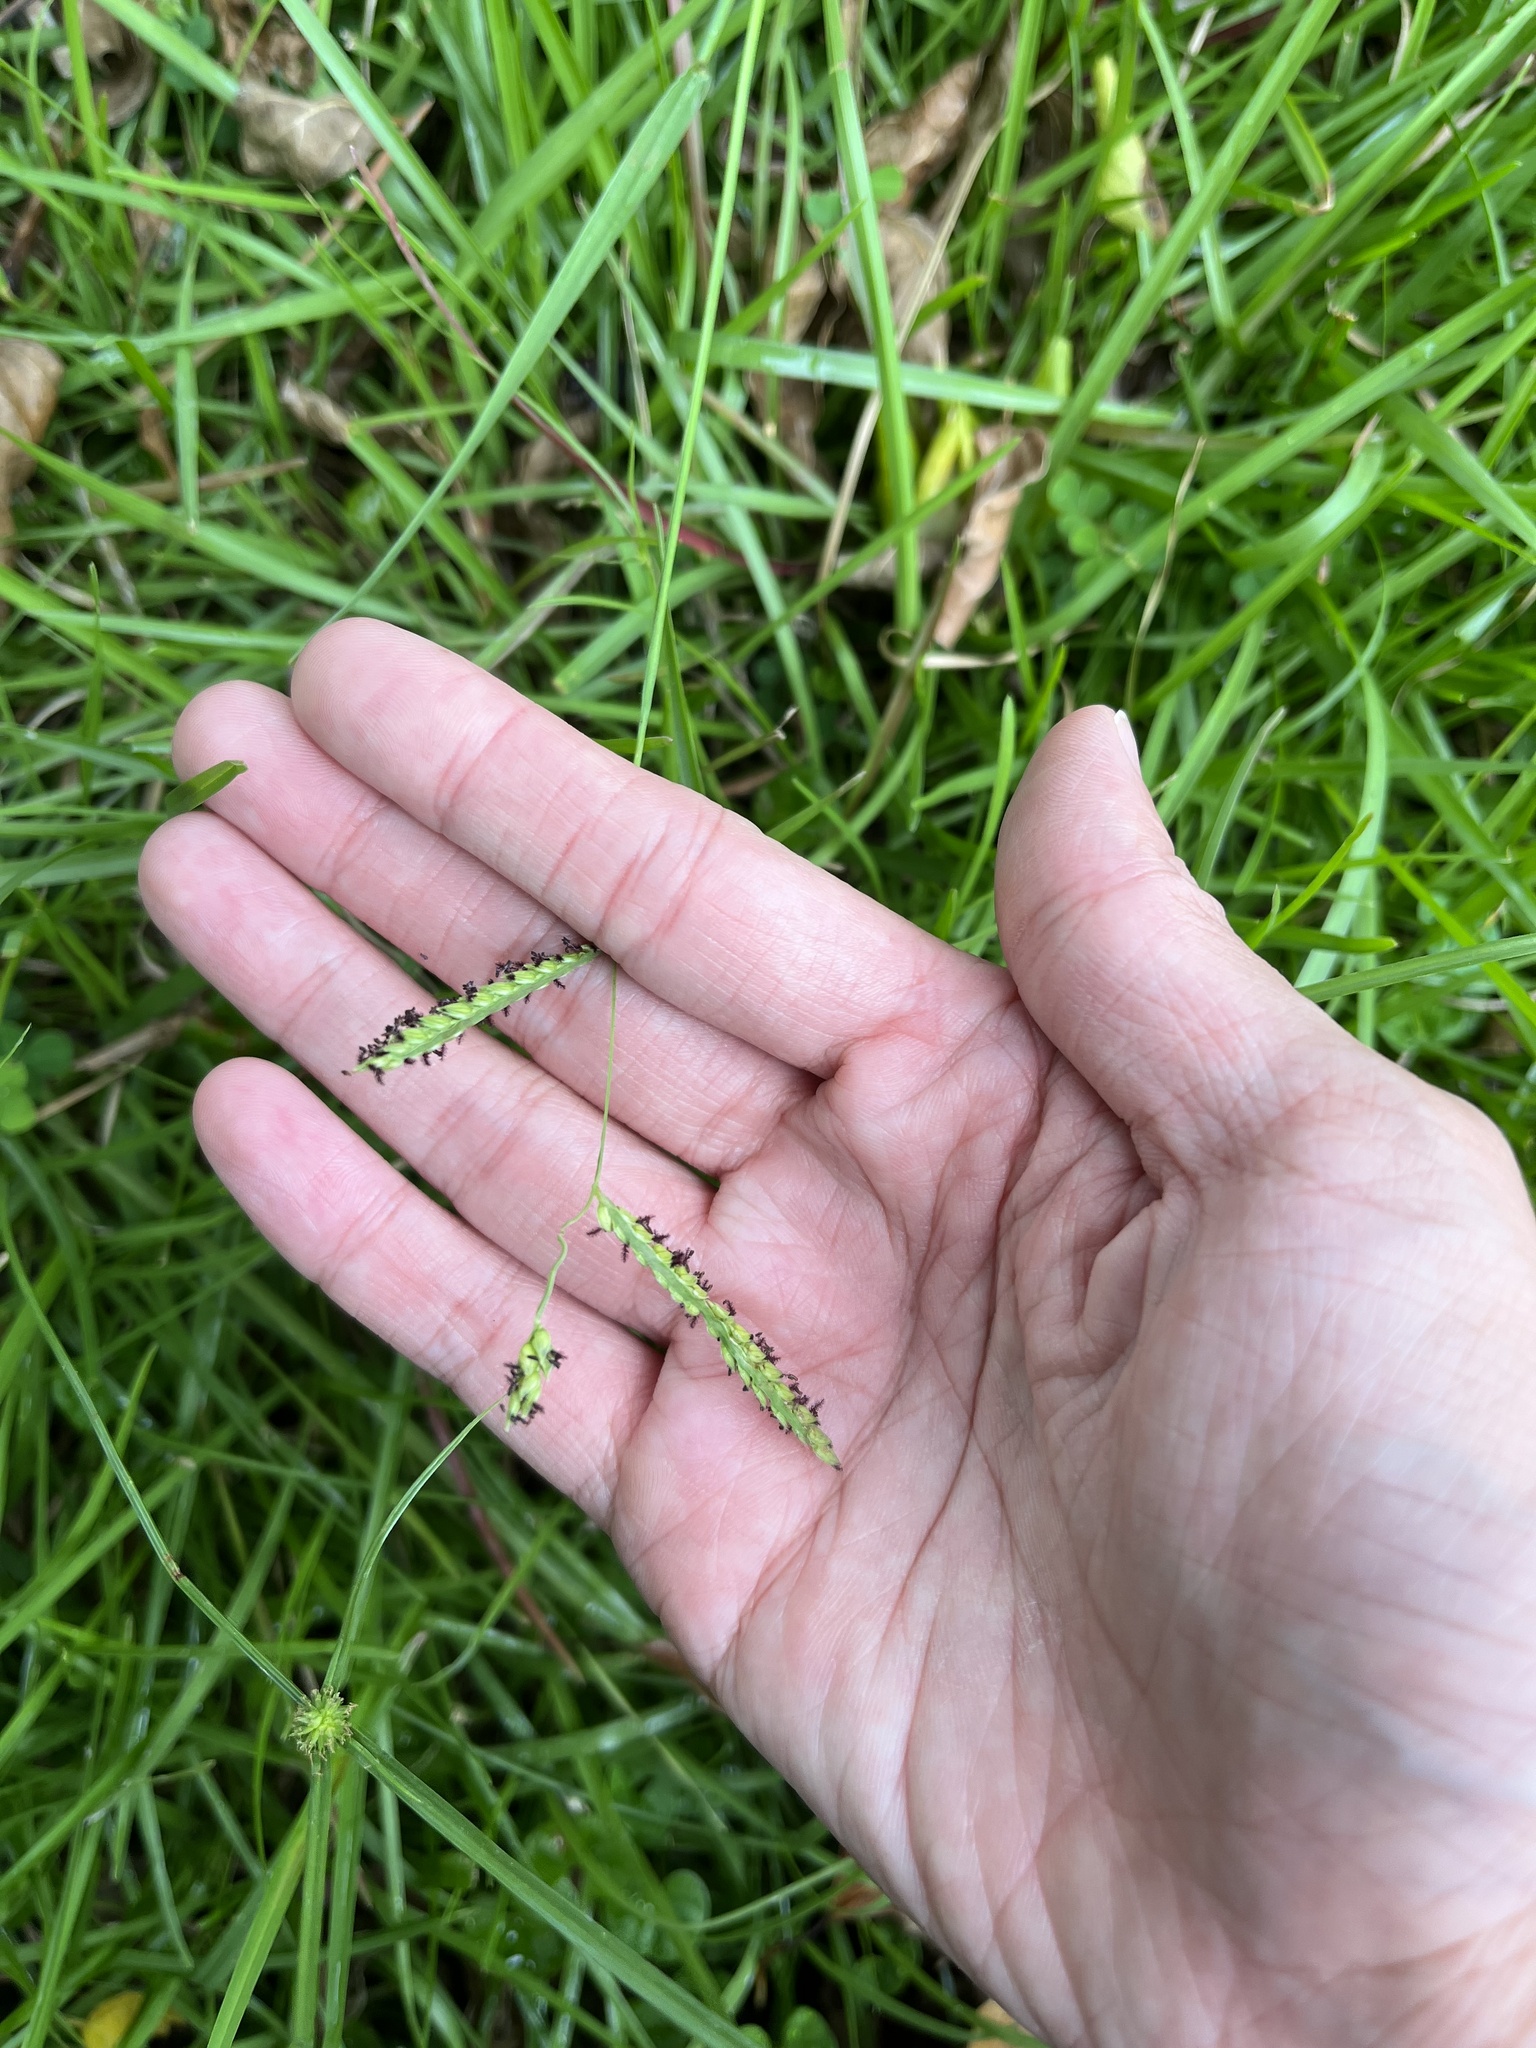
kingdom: Plantae
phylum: Tracheophyta
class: Liliopsida
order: Poales
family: Poaceae
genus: Paspalum
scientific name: Paspalum dilatatum
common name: Dallisgrass
